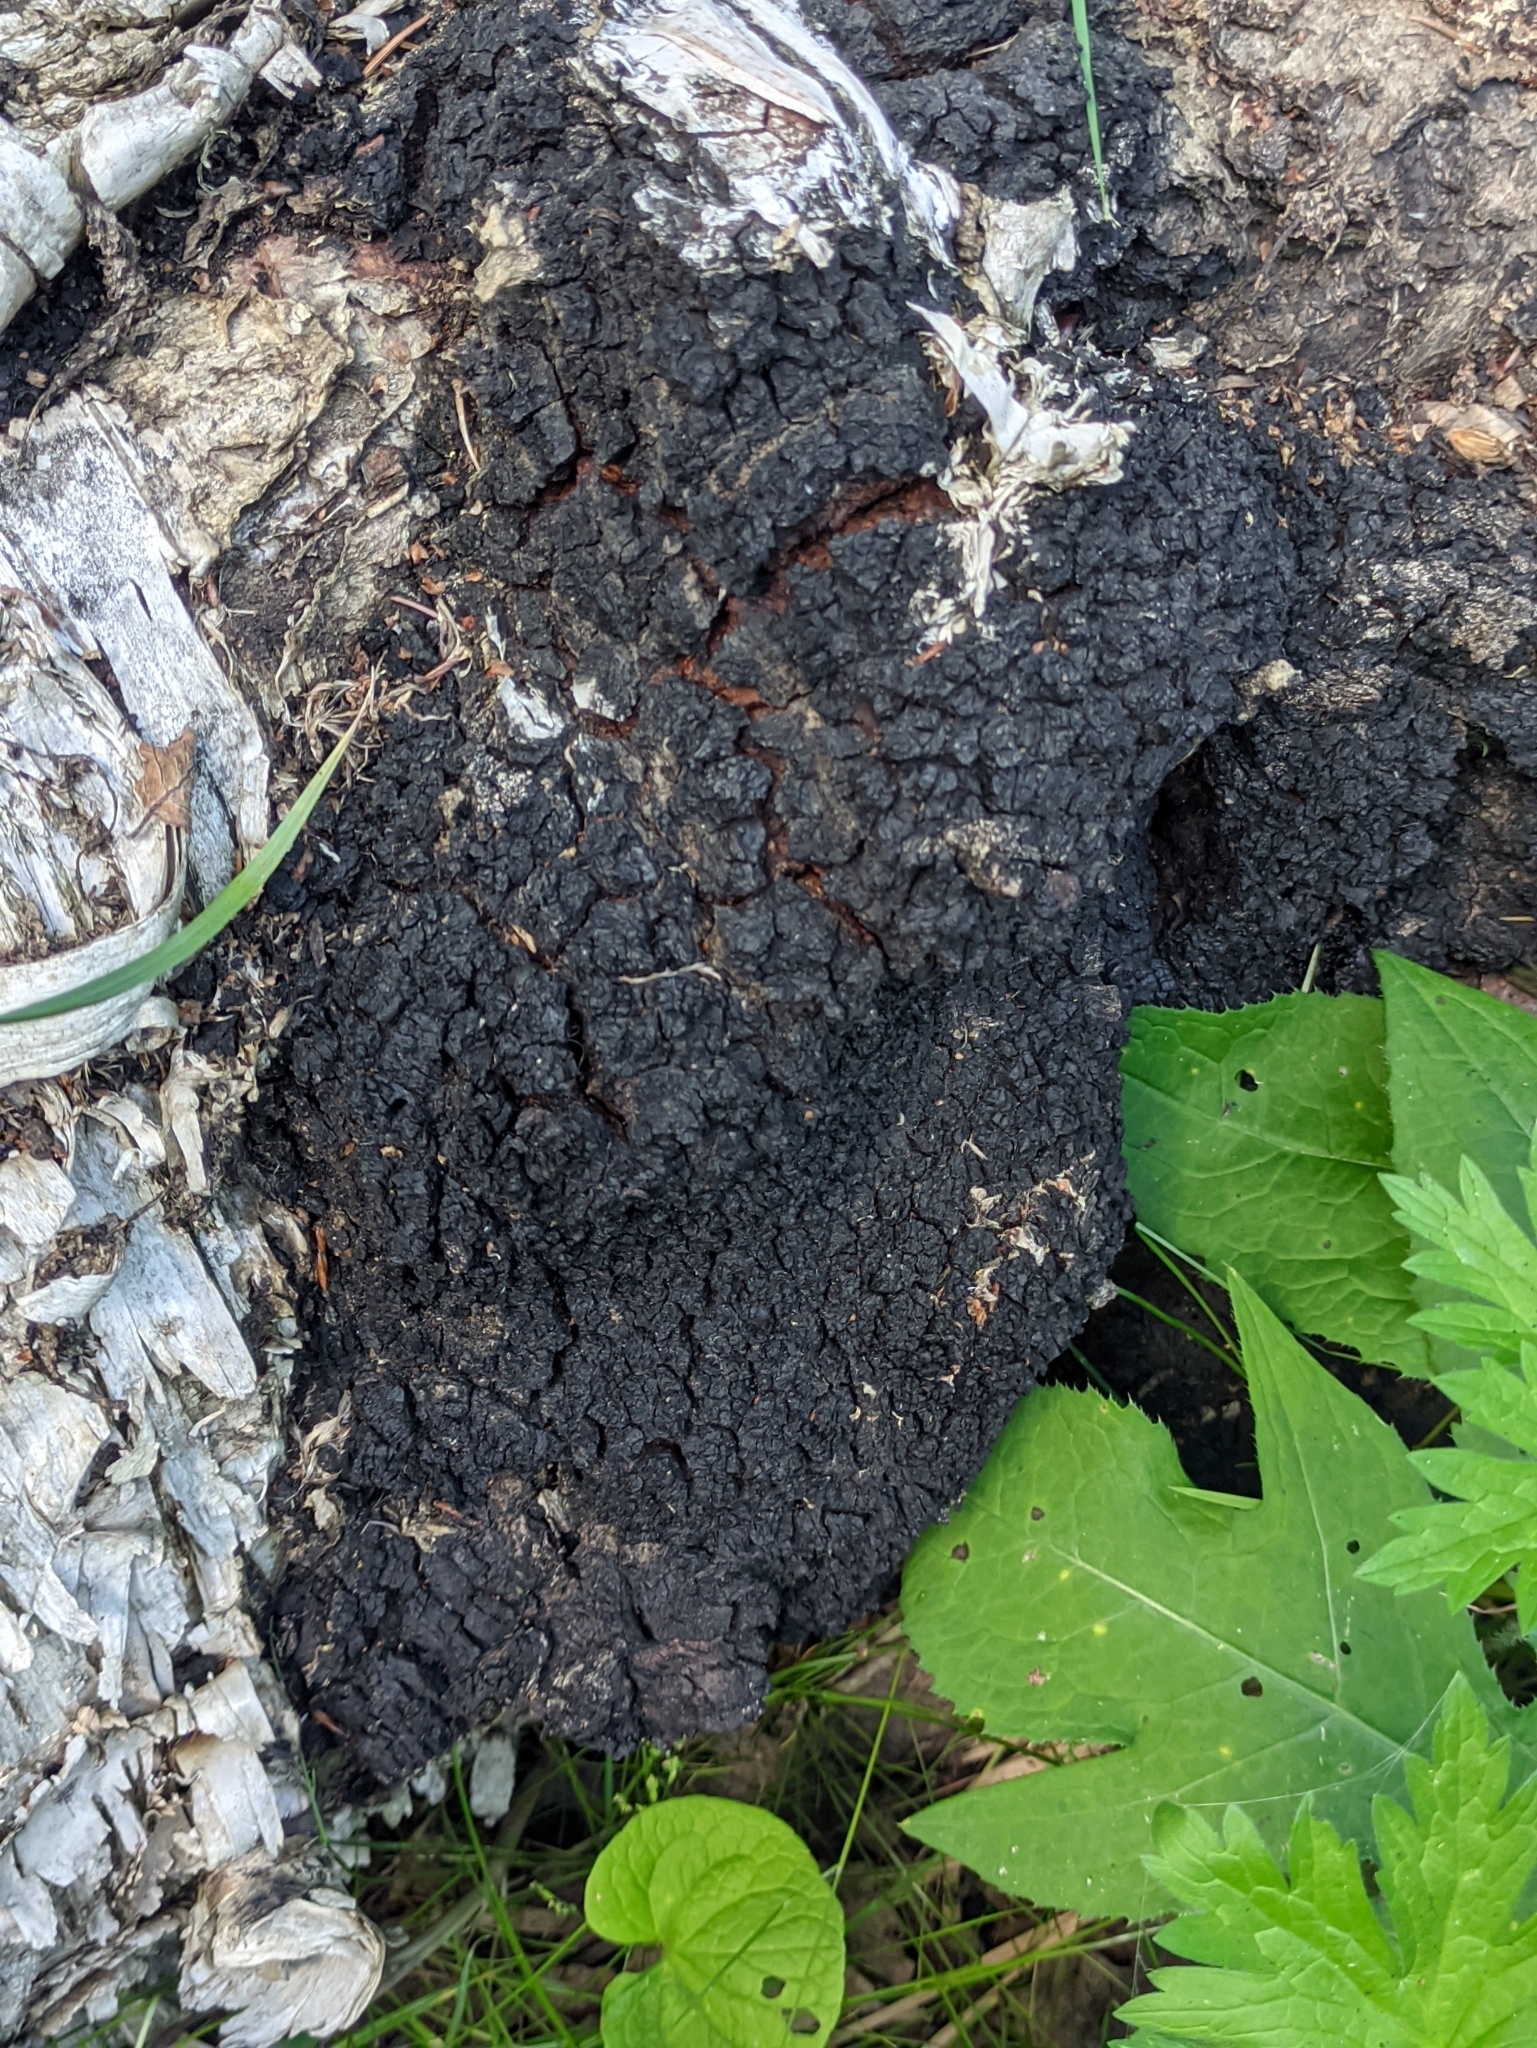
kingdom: Fungi
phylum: Basidiomycota
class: Agaricomycetes
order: Hymenochaetales
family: Hymenochaetaceae
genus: Inonotus
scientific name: Inonotus obliquus
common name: Chaga
